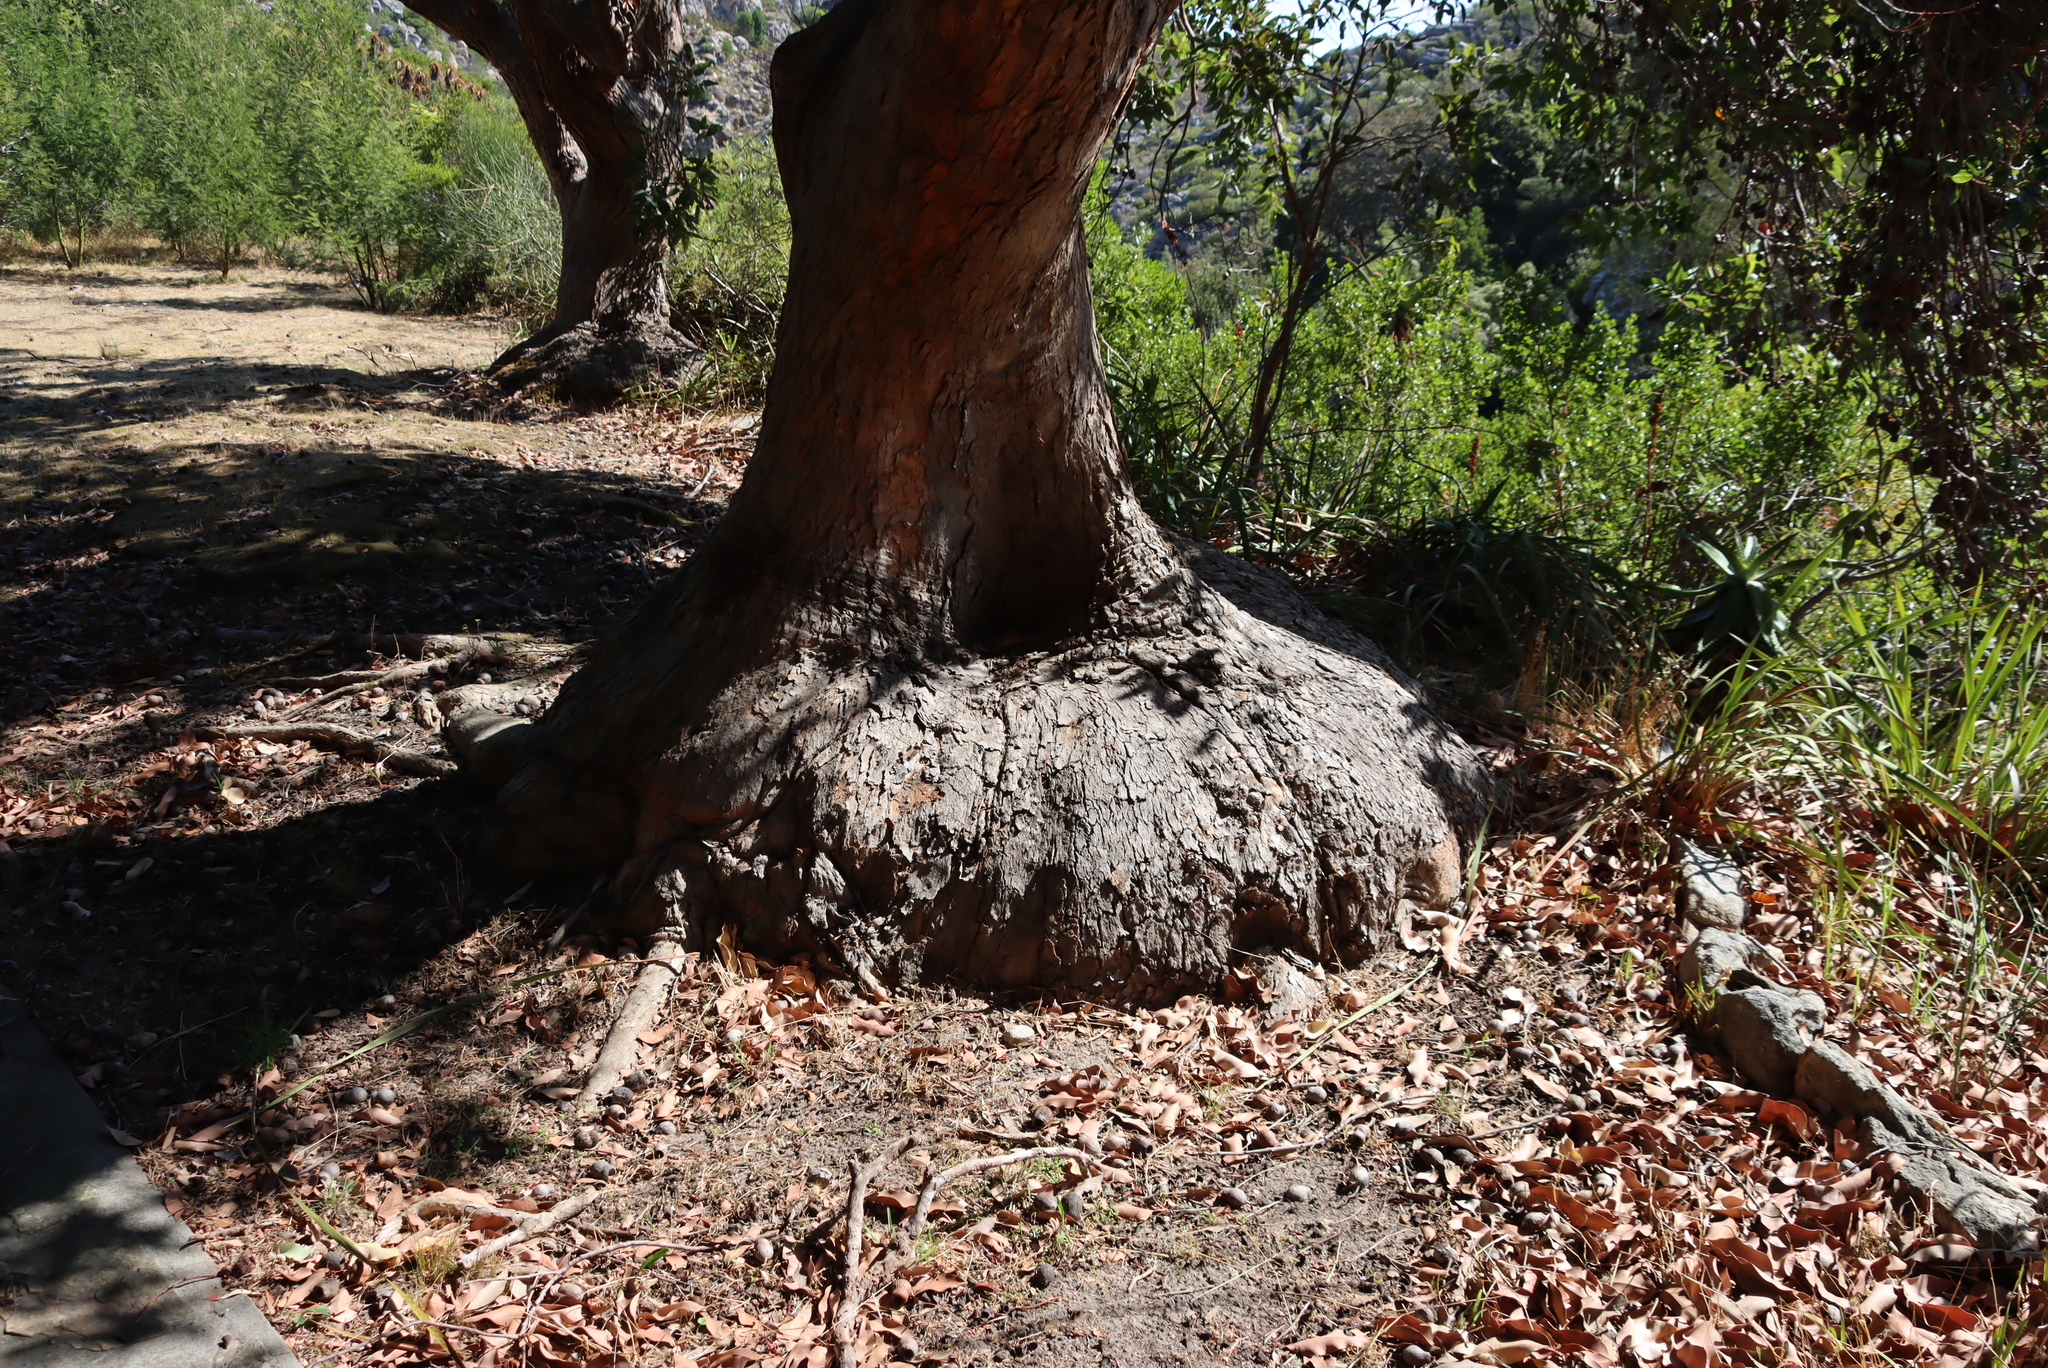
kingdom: Plantae
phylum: Tracheophyta
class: Magnoliopsida
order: Myrtales
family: Myrtaceae
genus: Corymbia
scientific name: Corymbia ficifolia
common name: Redflower gum
